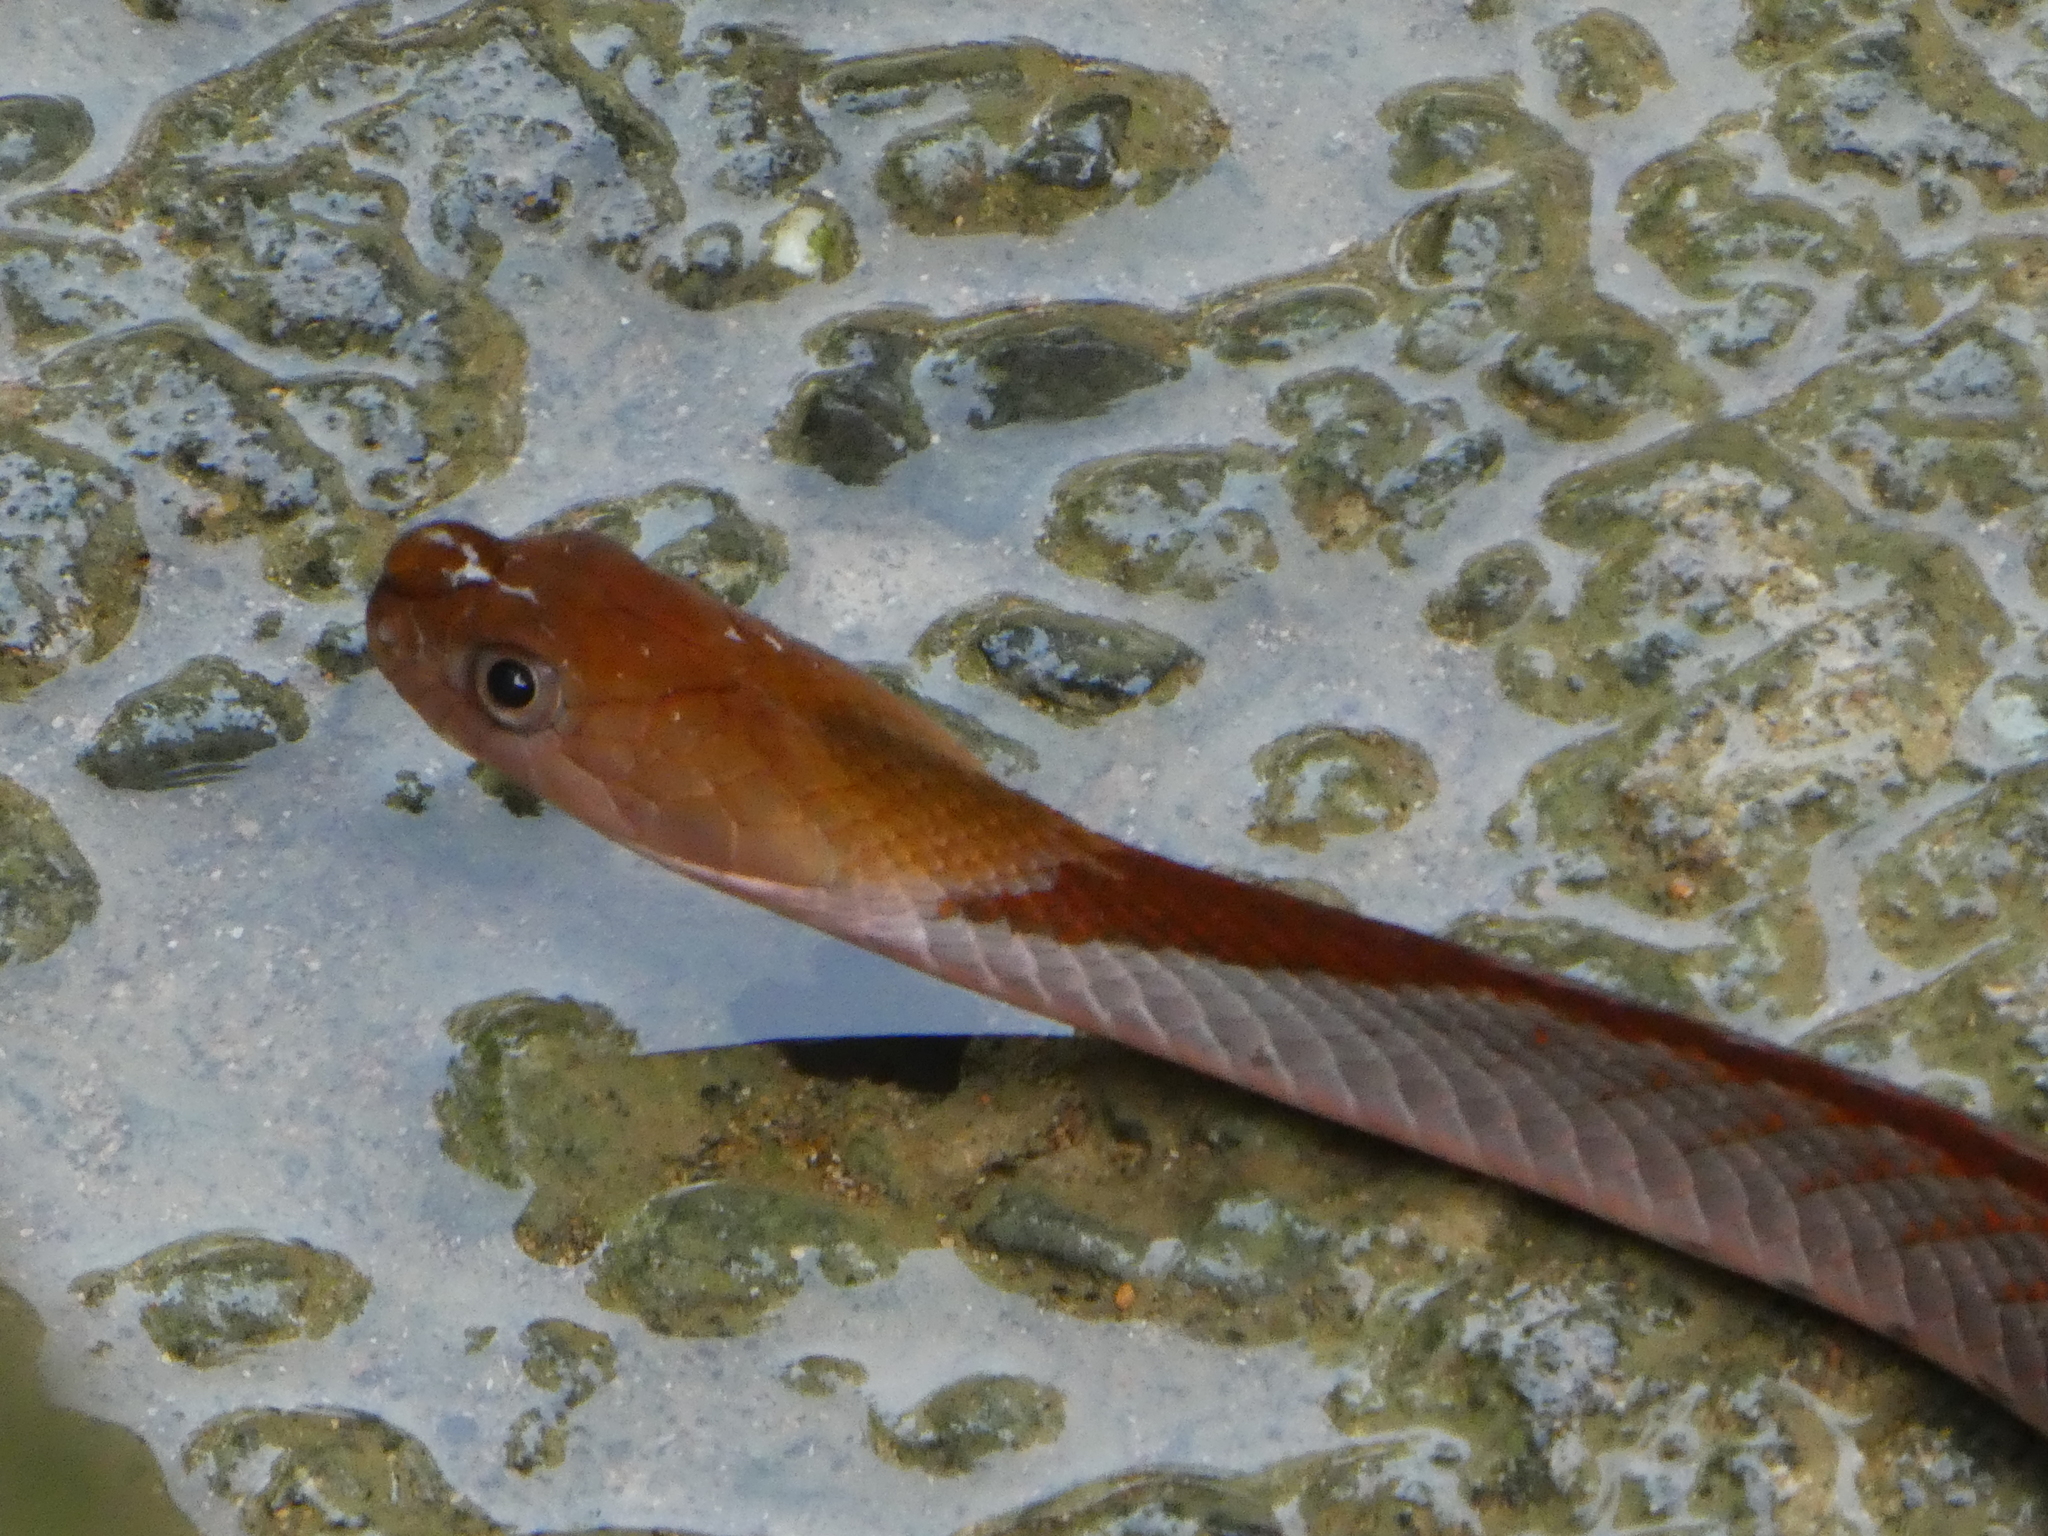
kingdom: Animalia
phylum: Chordata
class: Squamata
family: Colubridae
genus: Rhabdophis
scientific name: Rhabdophis rhodomelas
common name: Blue-necked keelback
